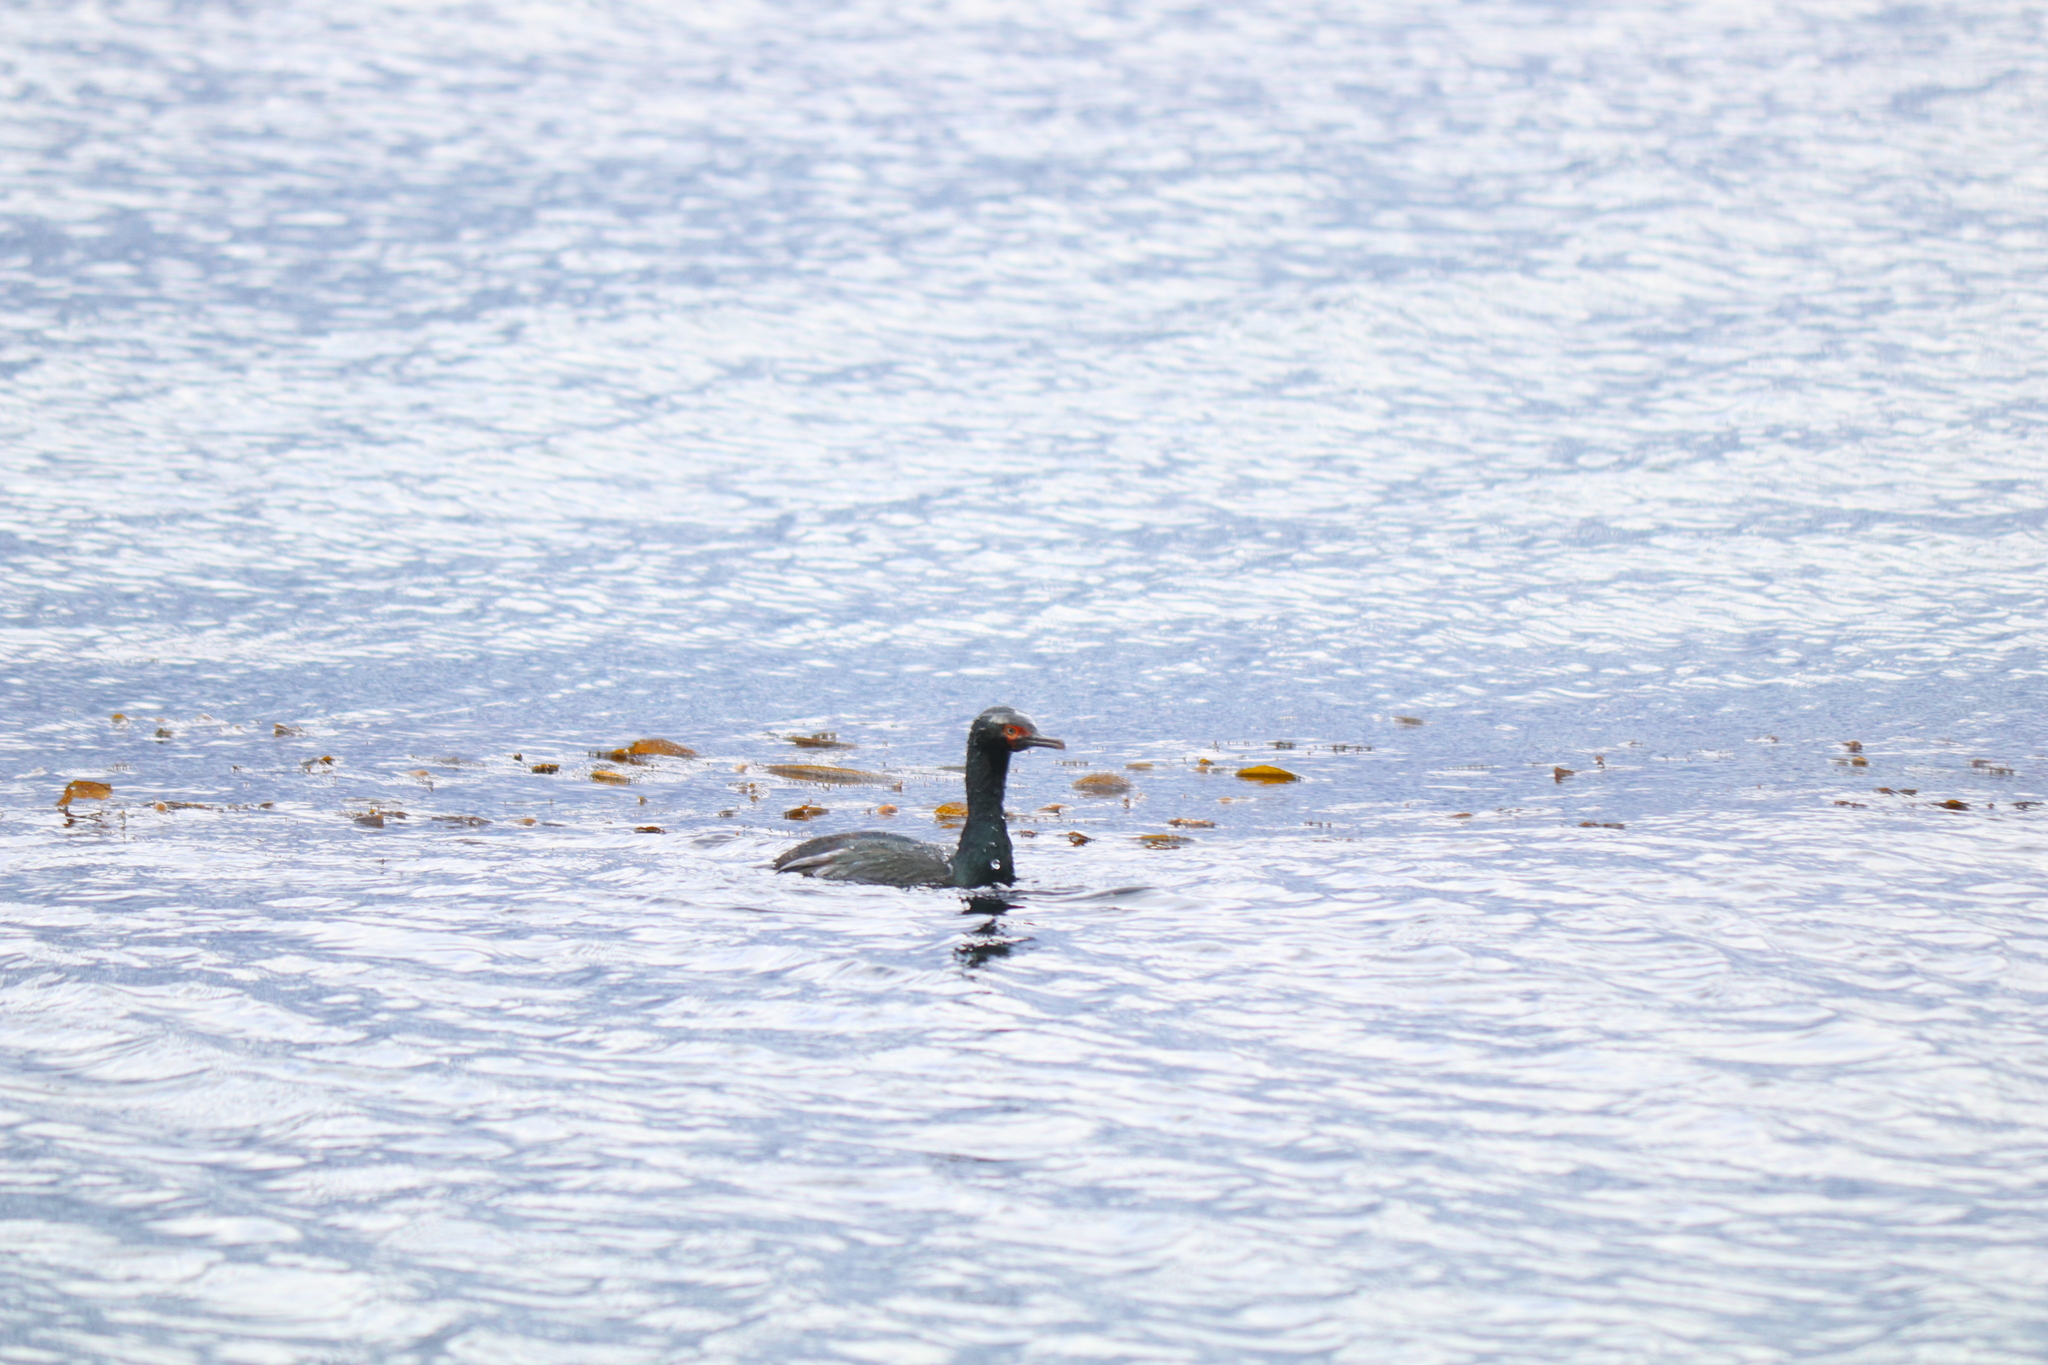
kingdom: Animalia
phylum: Chordata
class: Aves
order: Suliformes
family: Phalacrocoracidae
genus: Phalacrocorax
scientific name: Phalacrocorax magellanicus
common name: Rock shag
